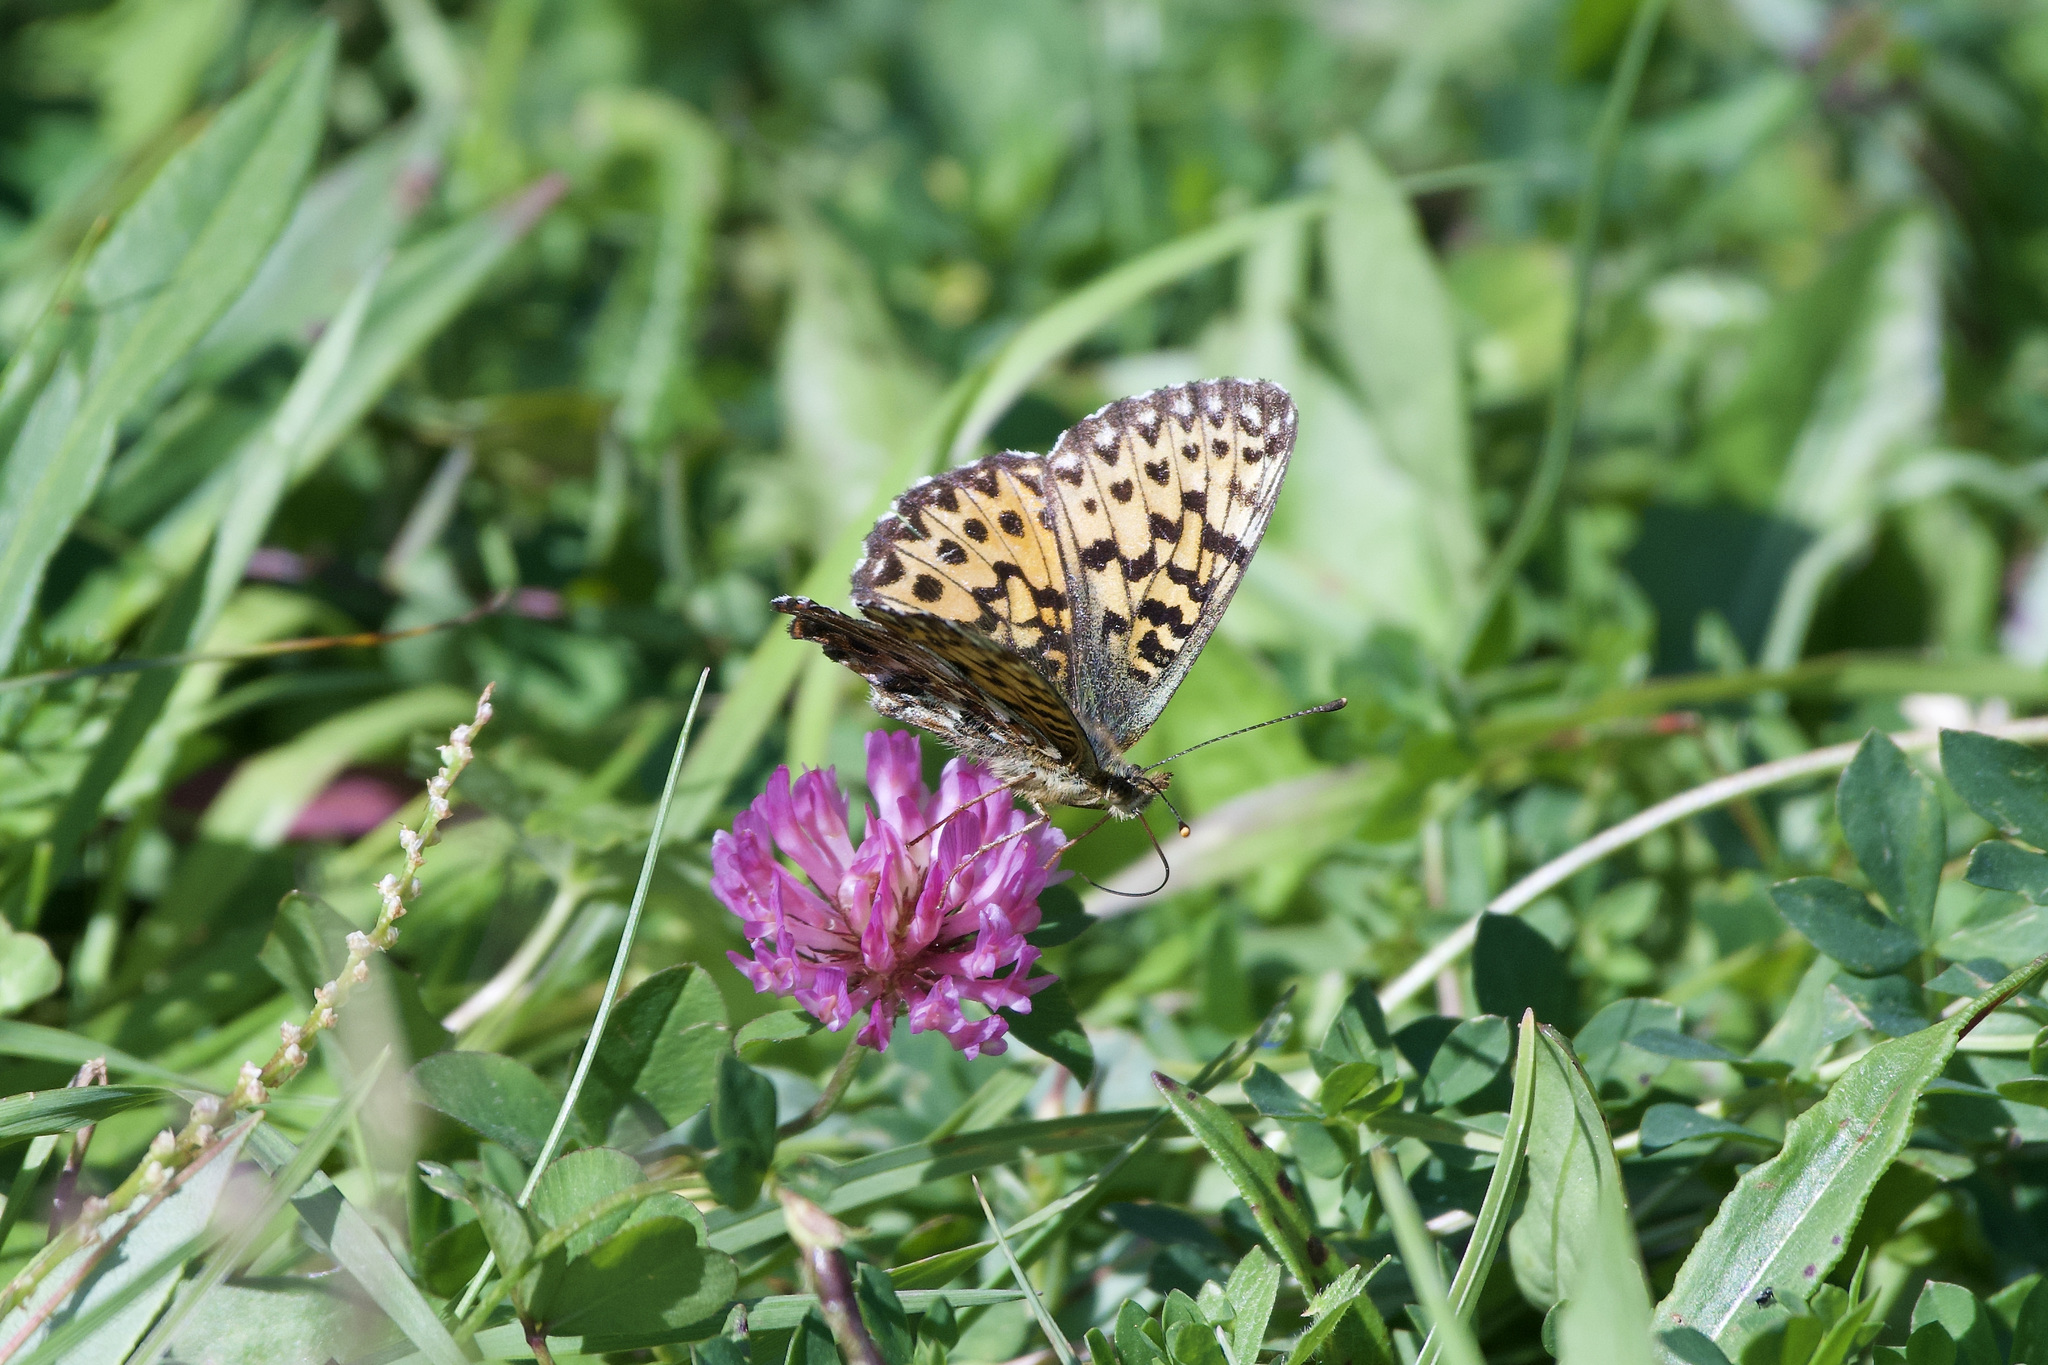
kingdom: Animalia
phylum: Arthropoda
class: Insecta
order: Lepidoptera
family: Nymphalidae
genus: Boloria
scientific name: Boloria titania
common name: Titania's fritillary
